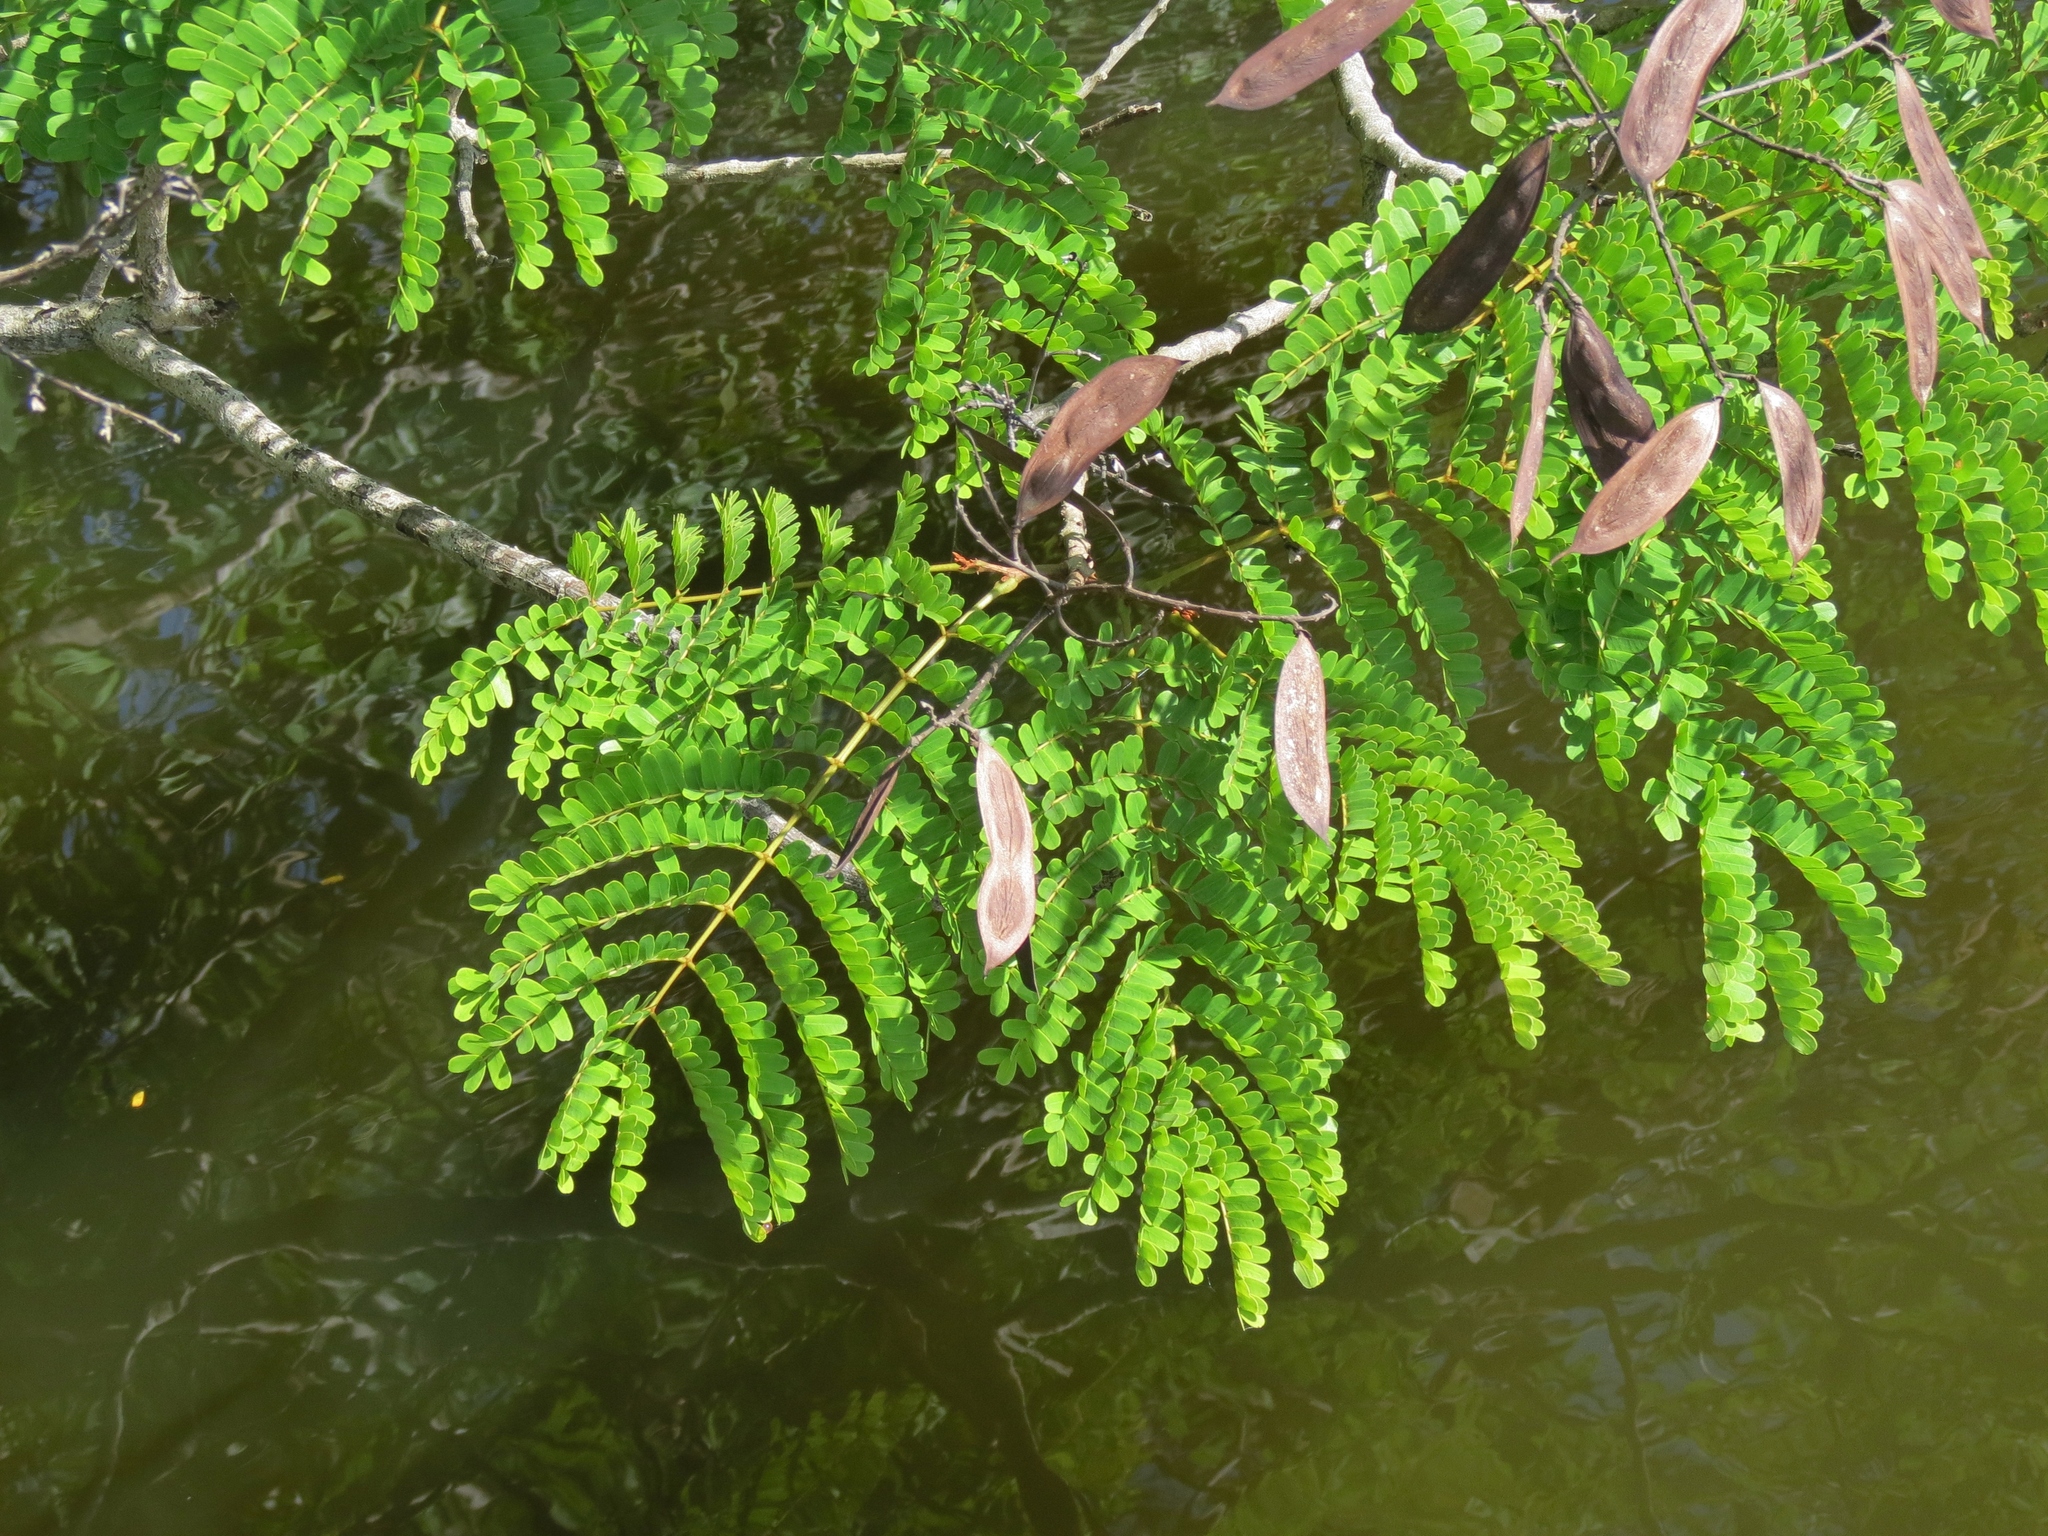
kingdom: Plantae
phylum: Tracheophyta
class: Magnoliopsida
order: Fabales
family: Fabaceae
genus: Peltophorum
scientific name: Peltophorum pterocarpum
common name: Yellow flame
